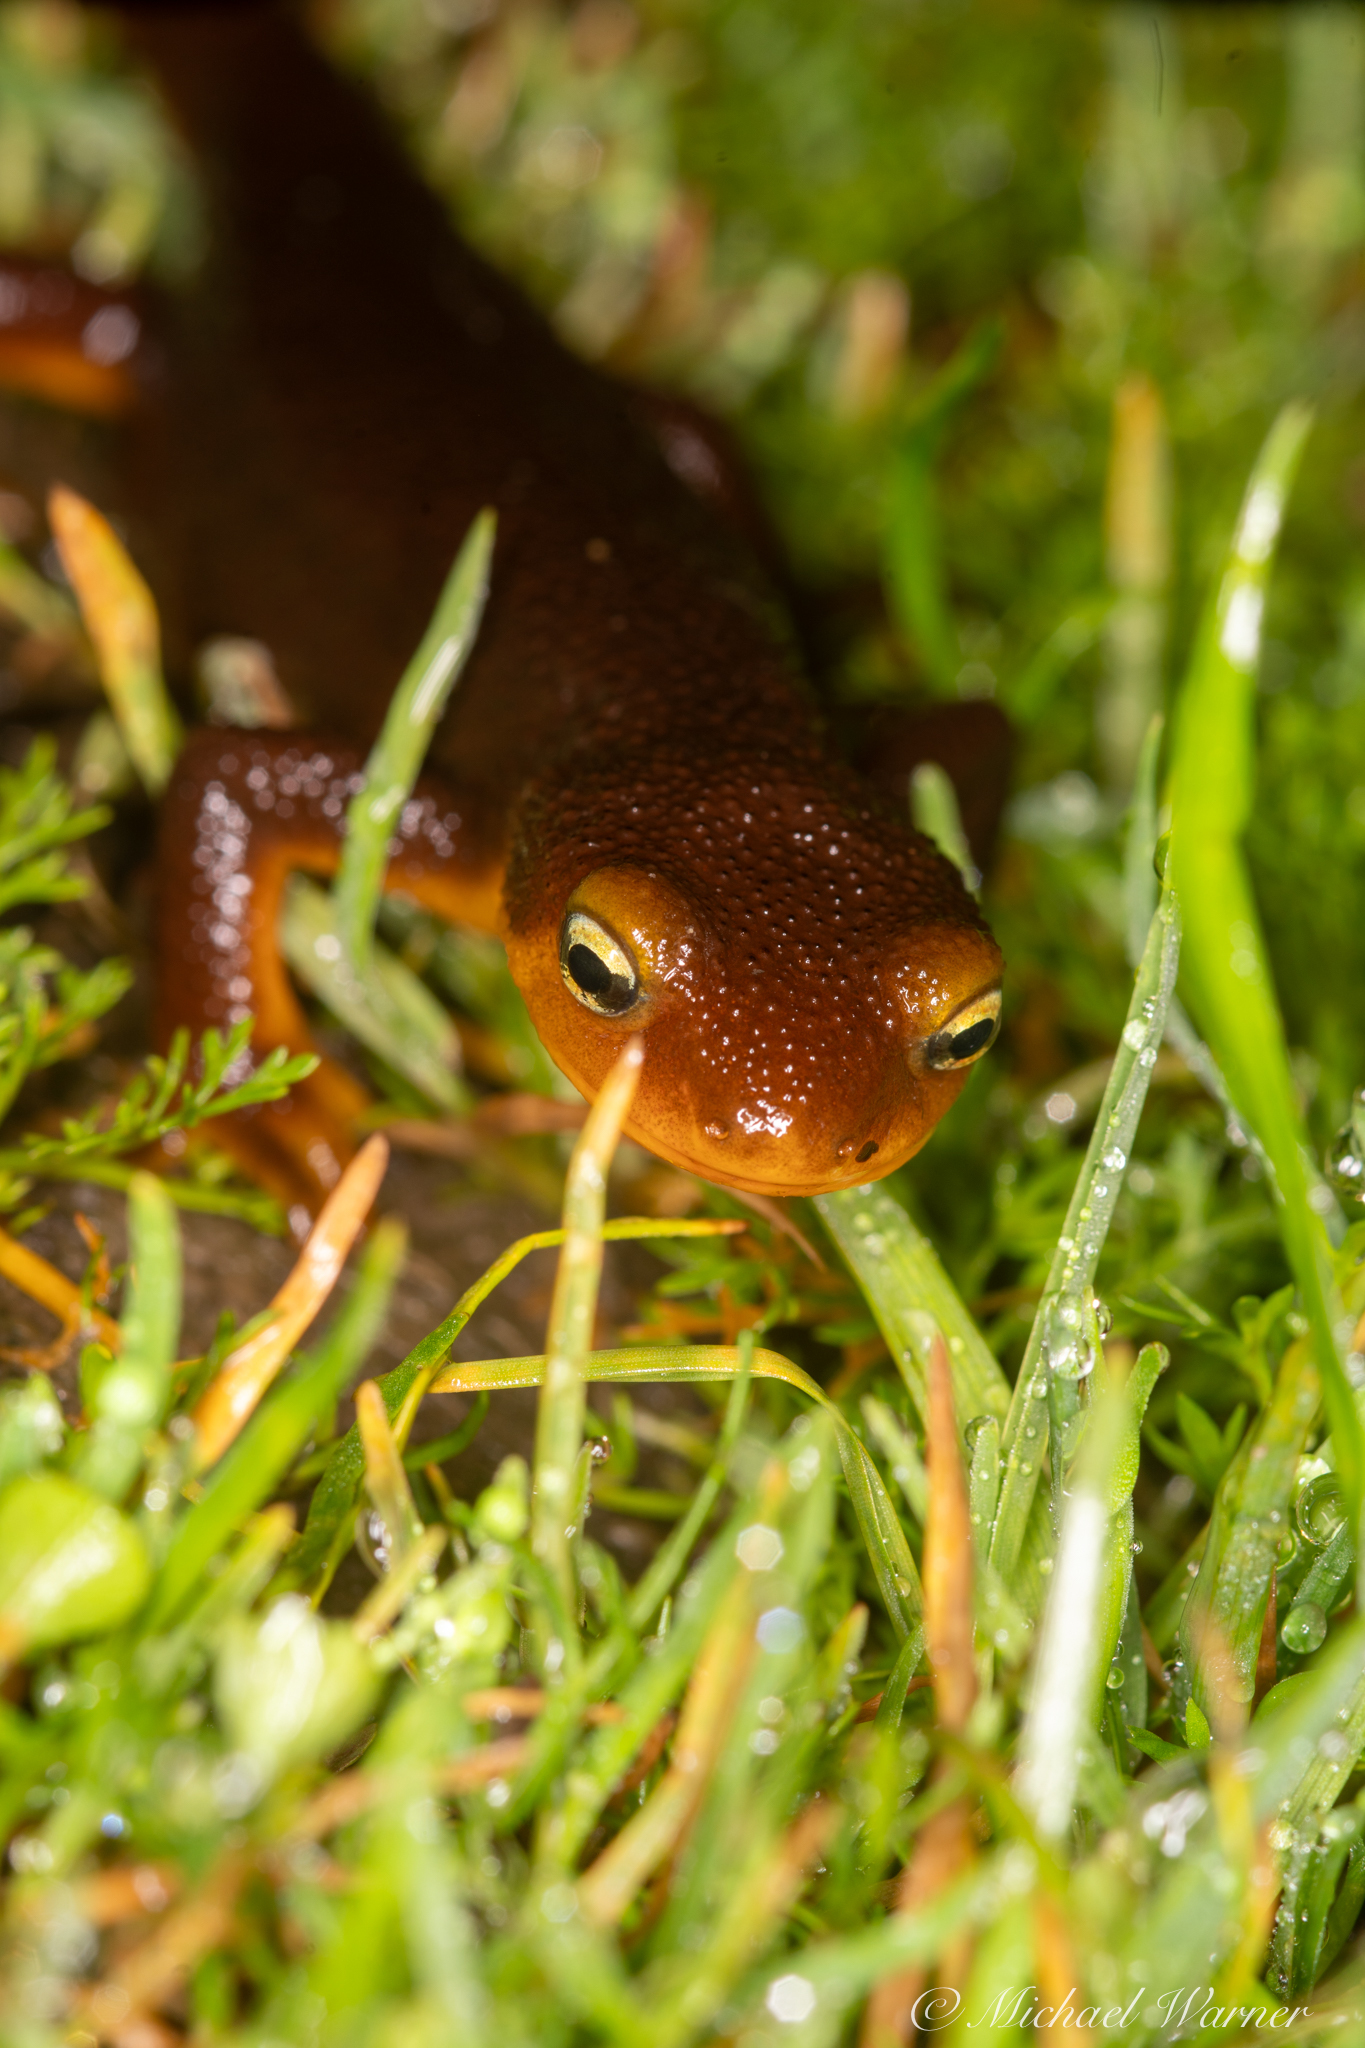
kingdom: Animalia
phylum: Chordata
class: Amphibia
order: Caudata
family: Salamandridae
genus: Taricha
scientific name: Taricha torosa
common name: California newt
